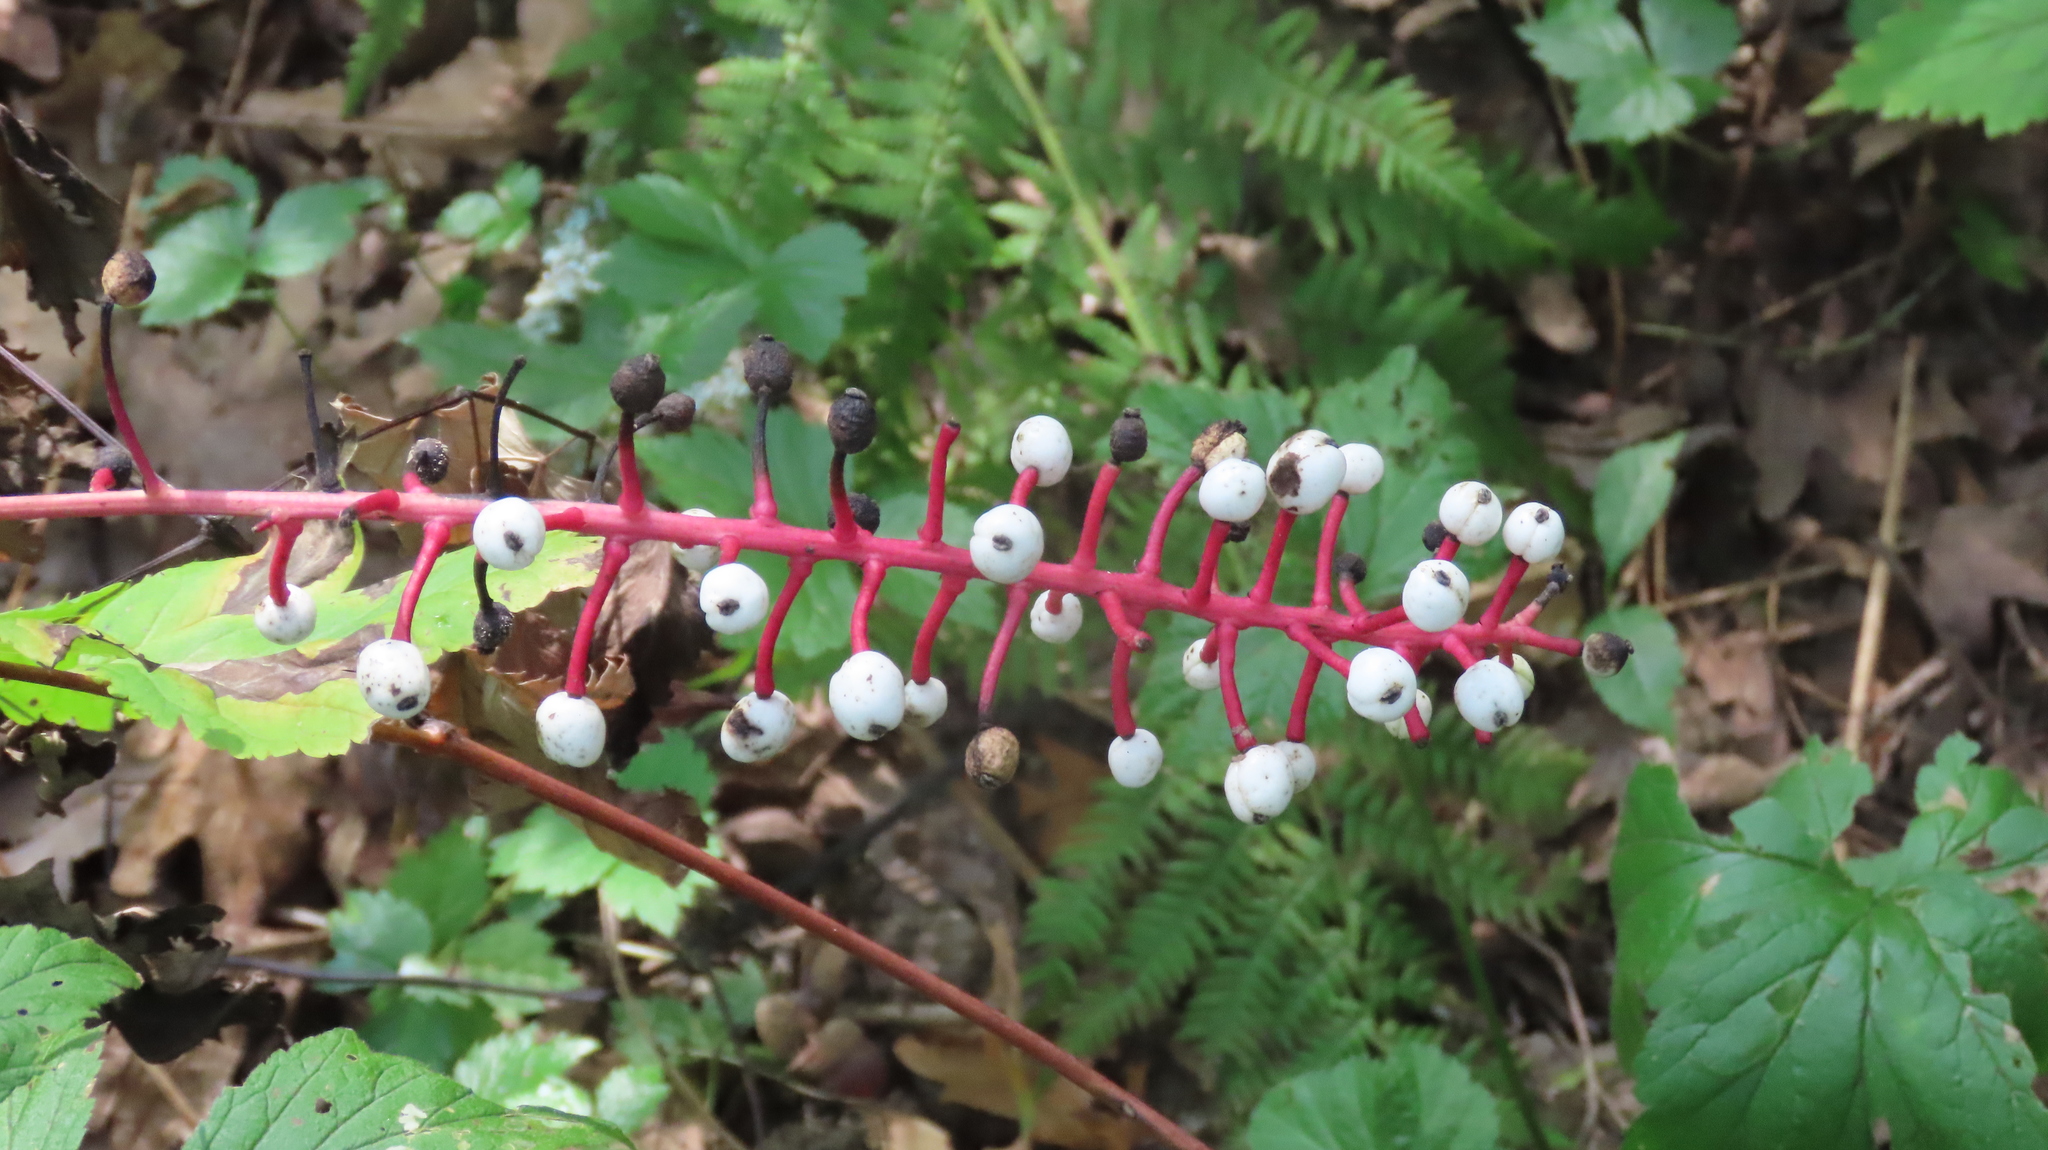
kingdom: Plantae
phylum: Tracheophyta
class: Magnoliopsida
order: Ranunculales
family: Ranunculaceae
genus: Actaea
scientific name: Actaea pachypoda
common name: Doll's-eyes
